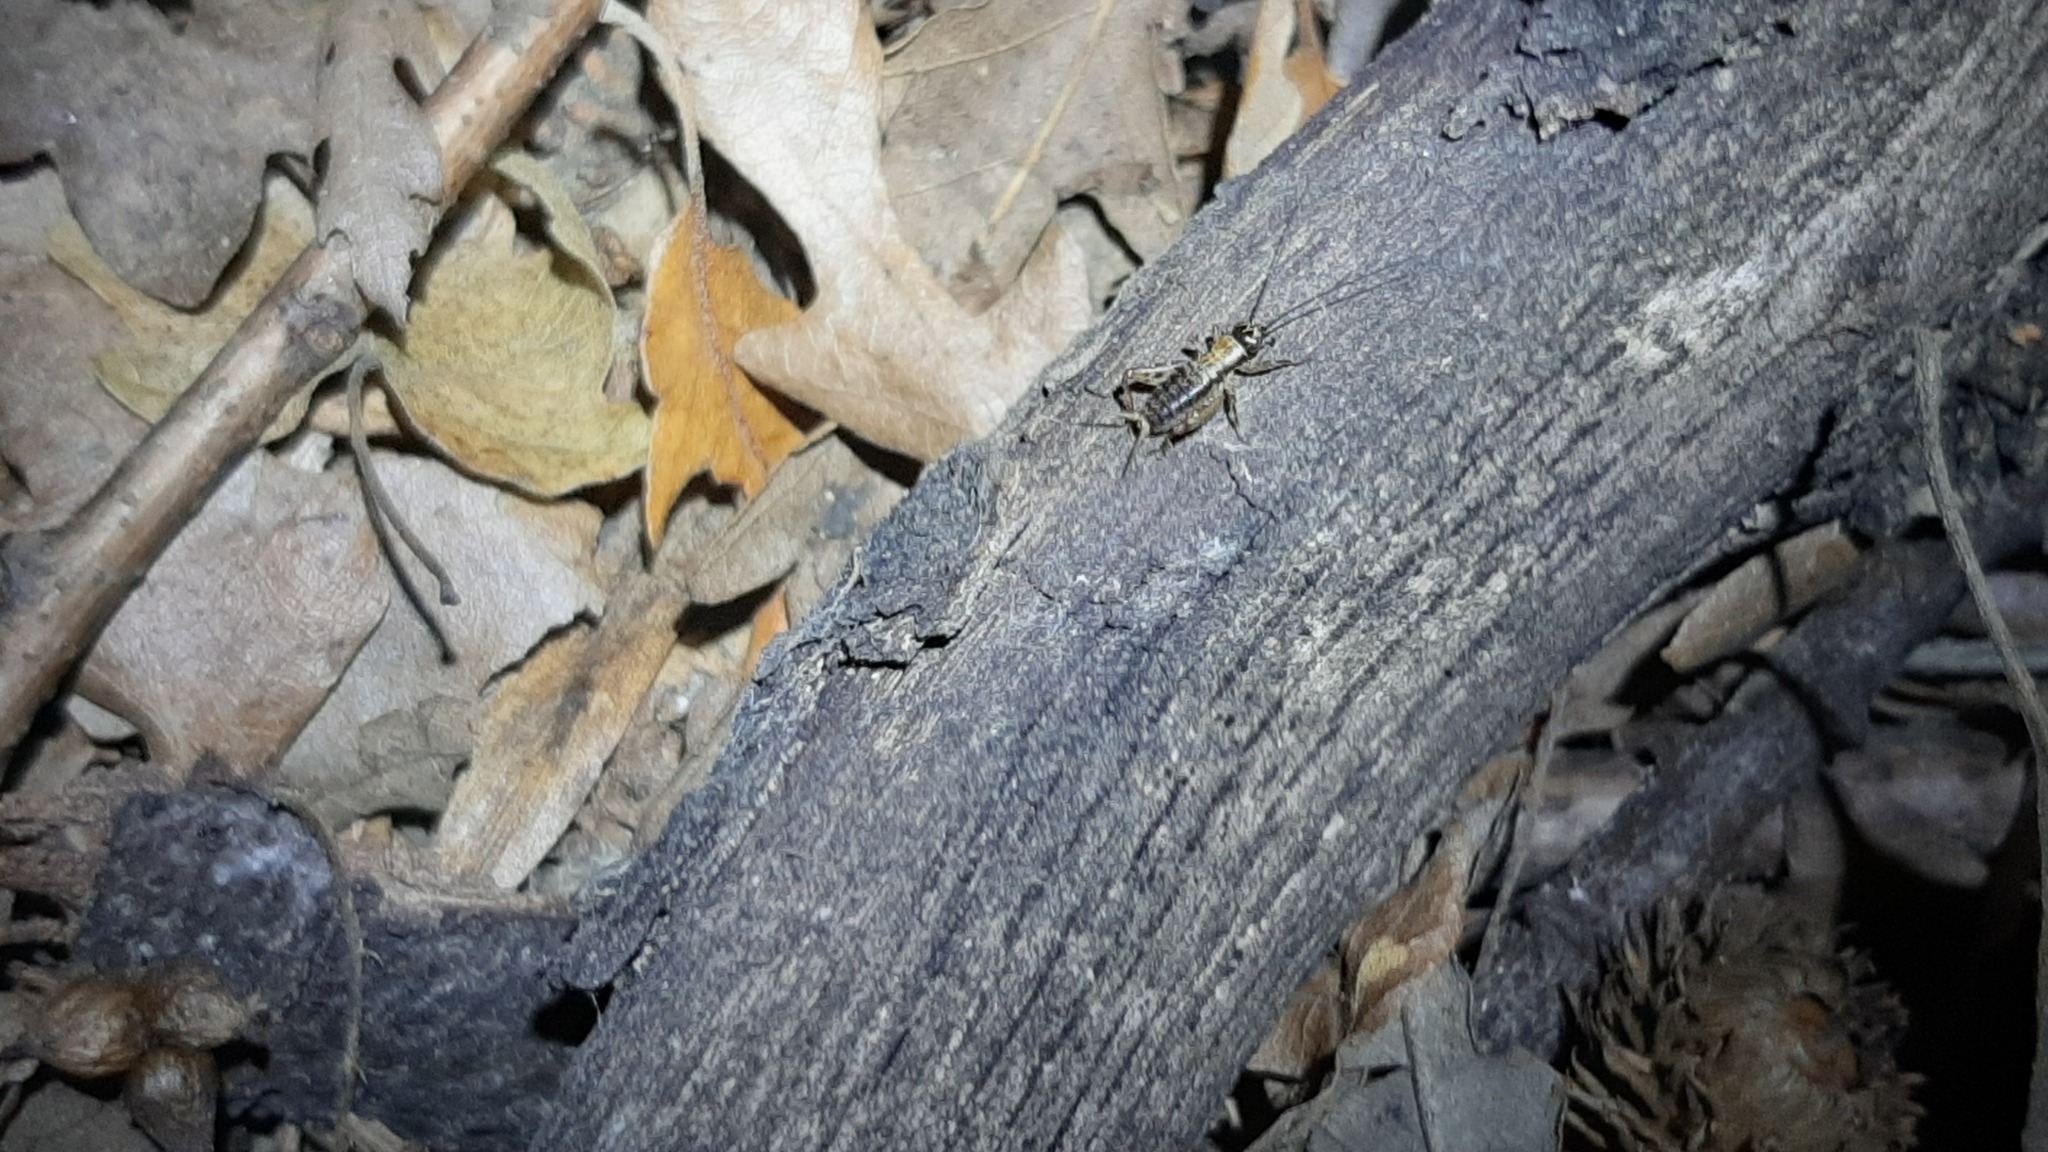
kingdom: Animalia
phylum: Arthropoda
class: Insecta
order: Orthoptera
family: Trigonidiidae
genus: Nemobius
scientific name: Nemobius sylvestris
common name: Wood-cricket
